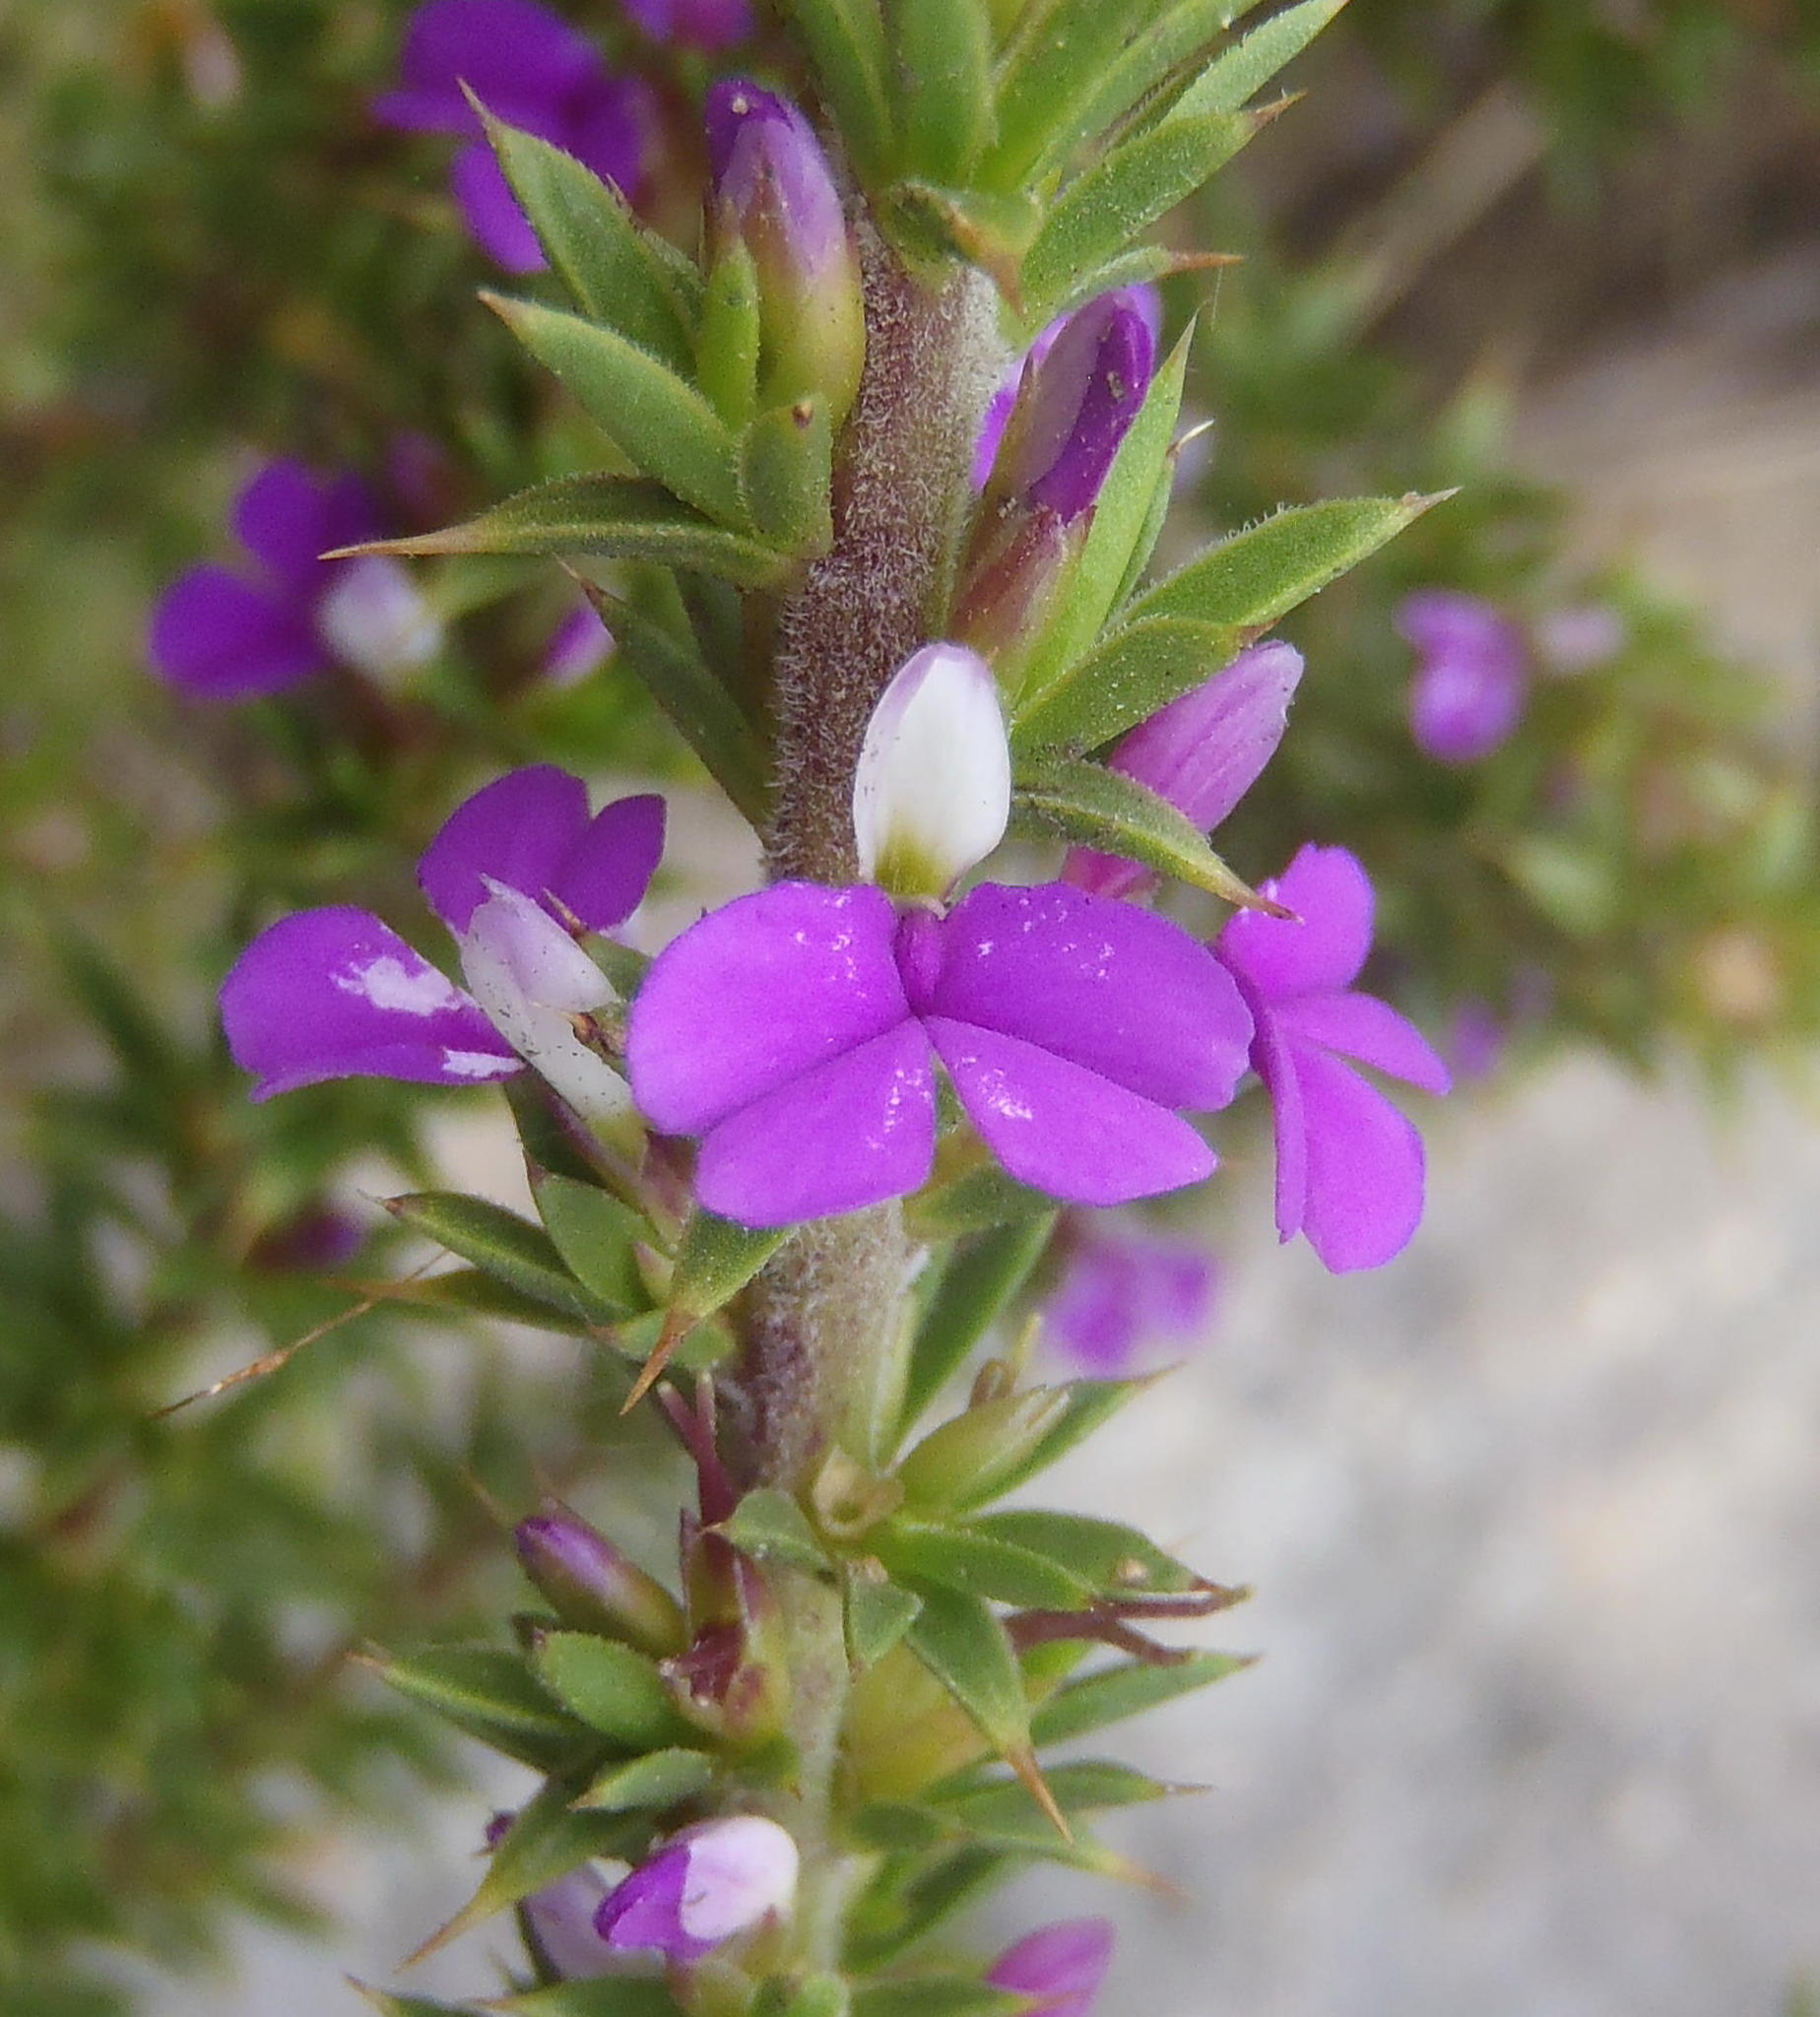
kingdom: Plantae
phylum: Tracheophyta
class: Magnoliopsida
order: Fabales
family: Polygalaceae
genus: Muraltia
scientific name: Muraltia heisteria
